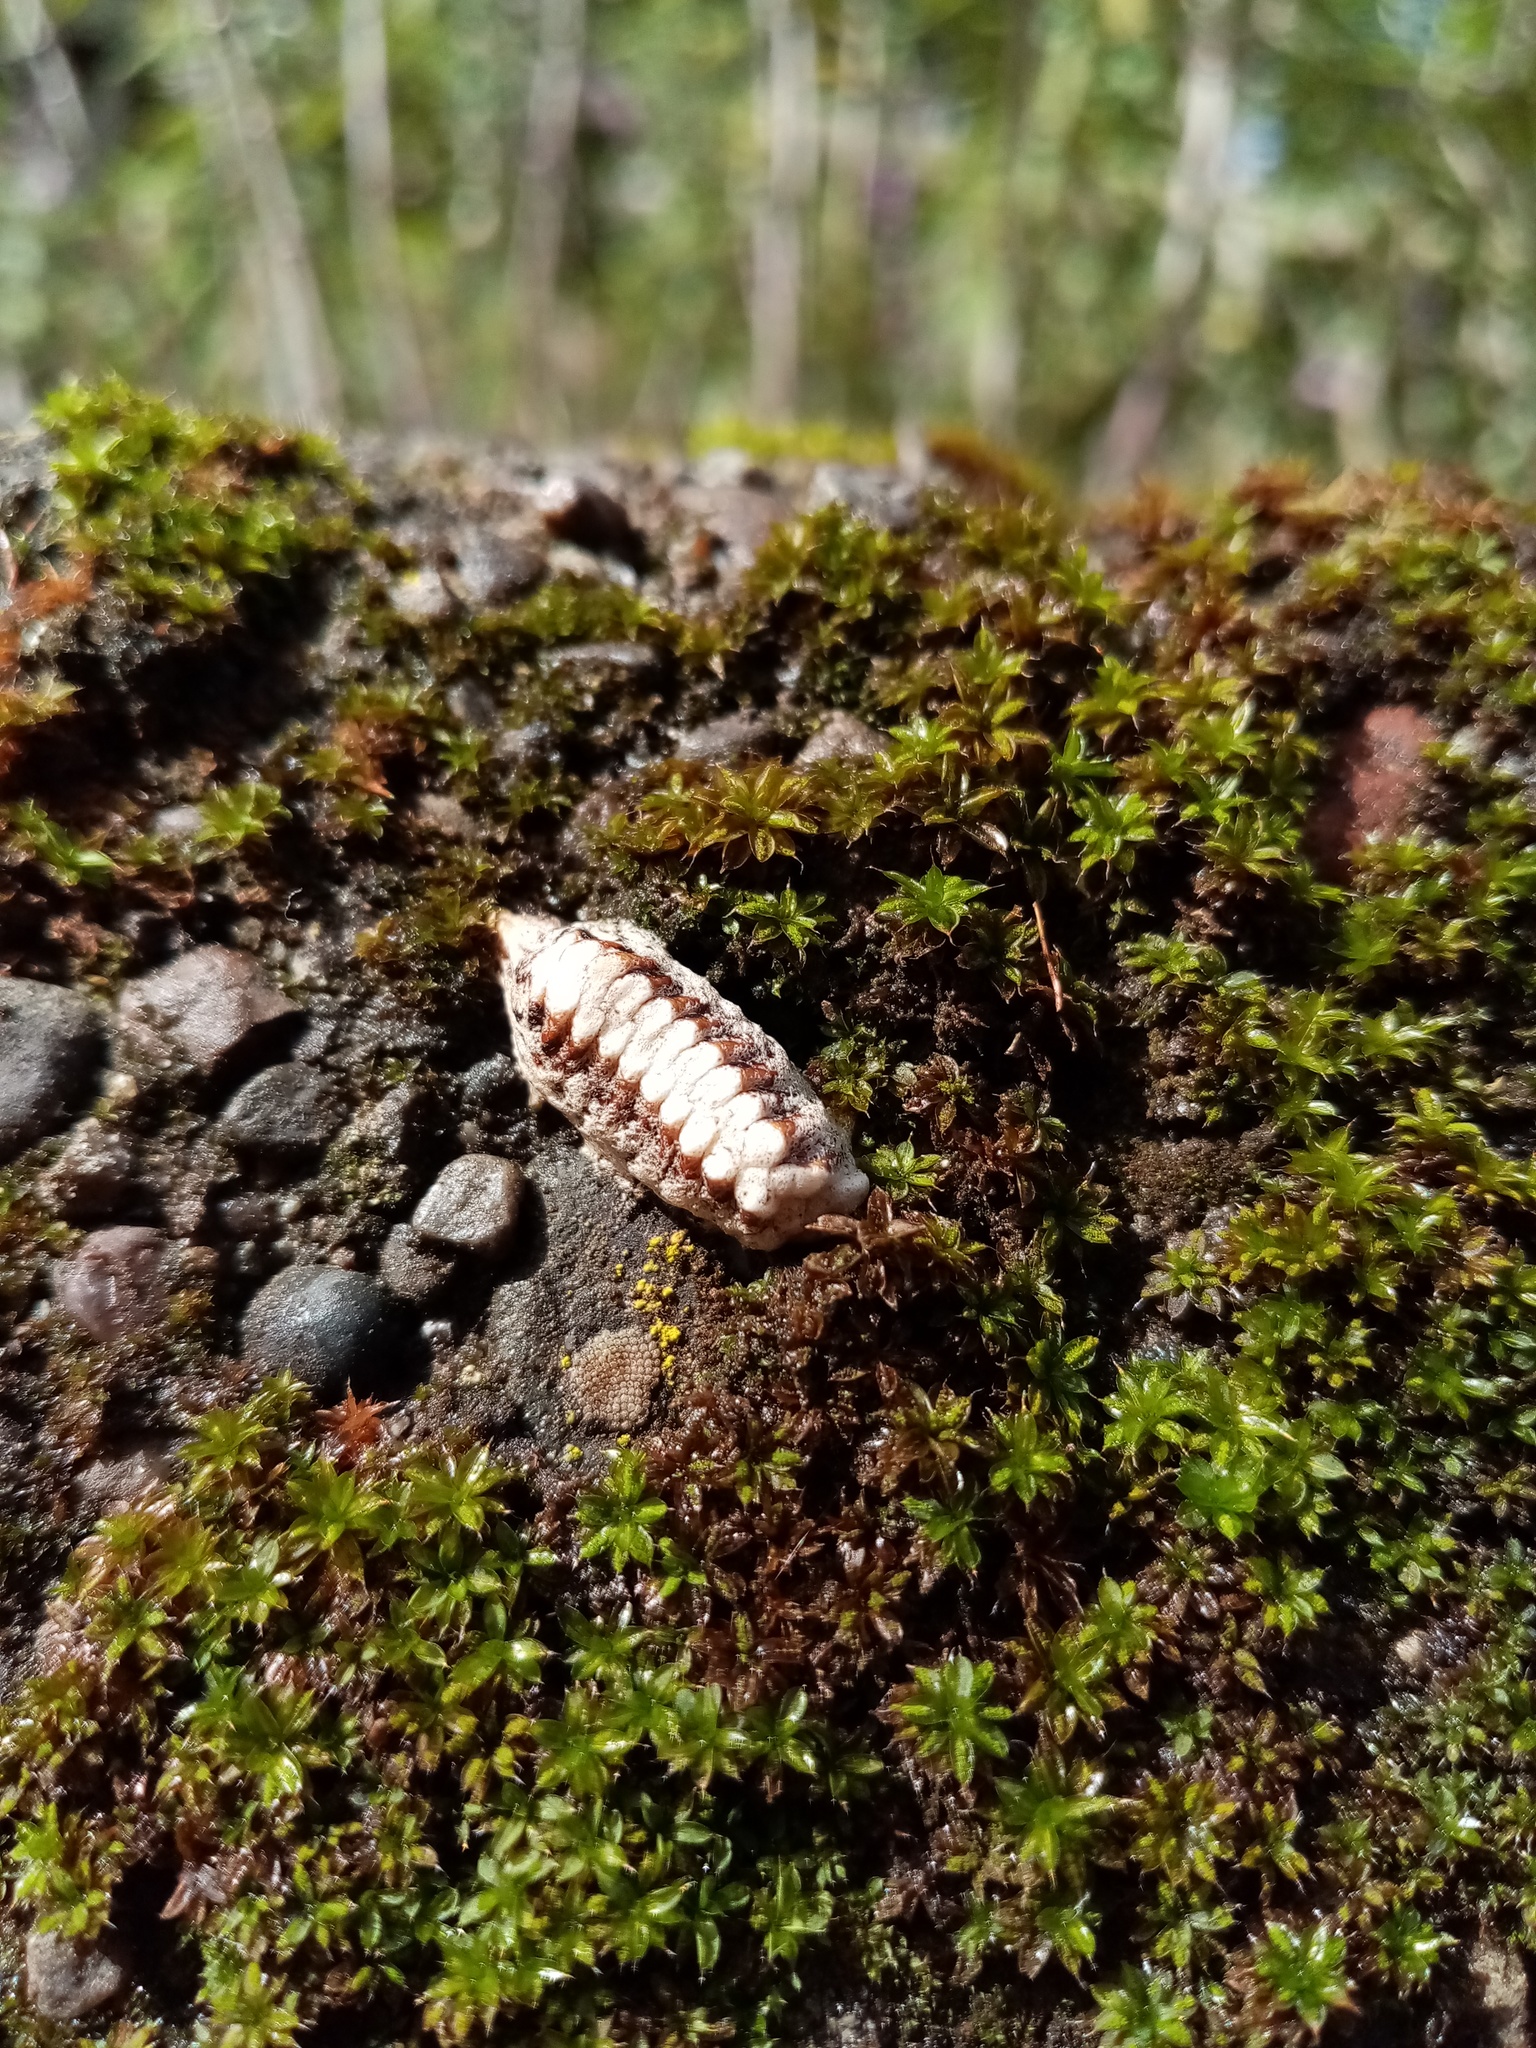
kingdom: Animalia
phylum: Arthropoda
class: Insecta
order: Mantodea
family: Mantidae
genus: Orthodera
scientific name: Orthodera novaezealandiae
